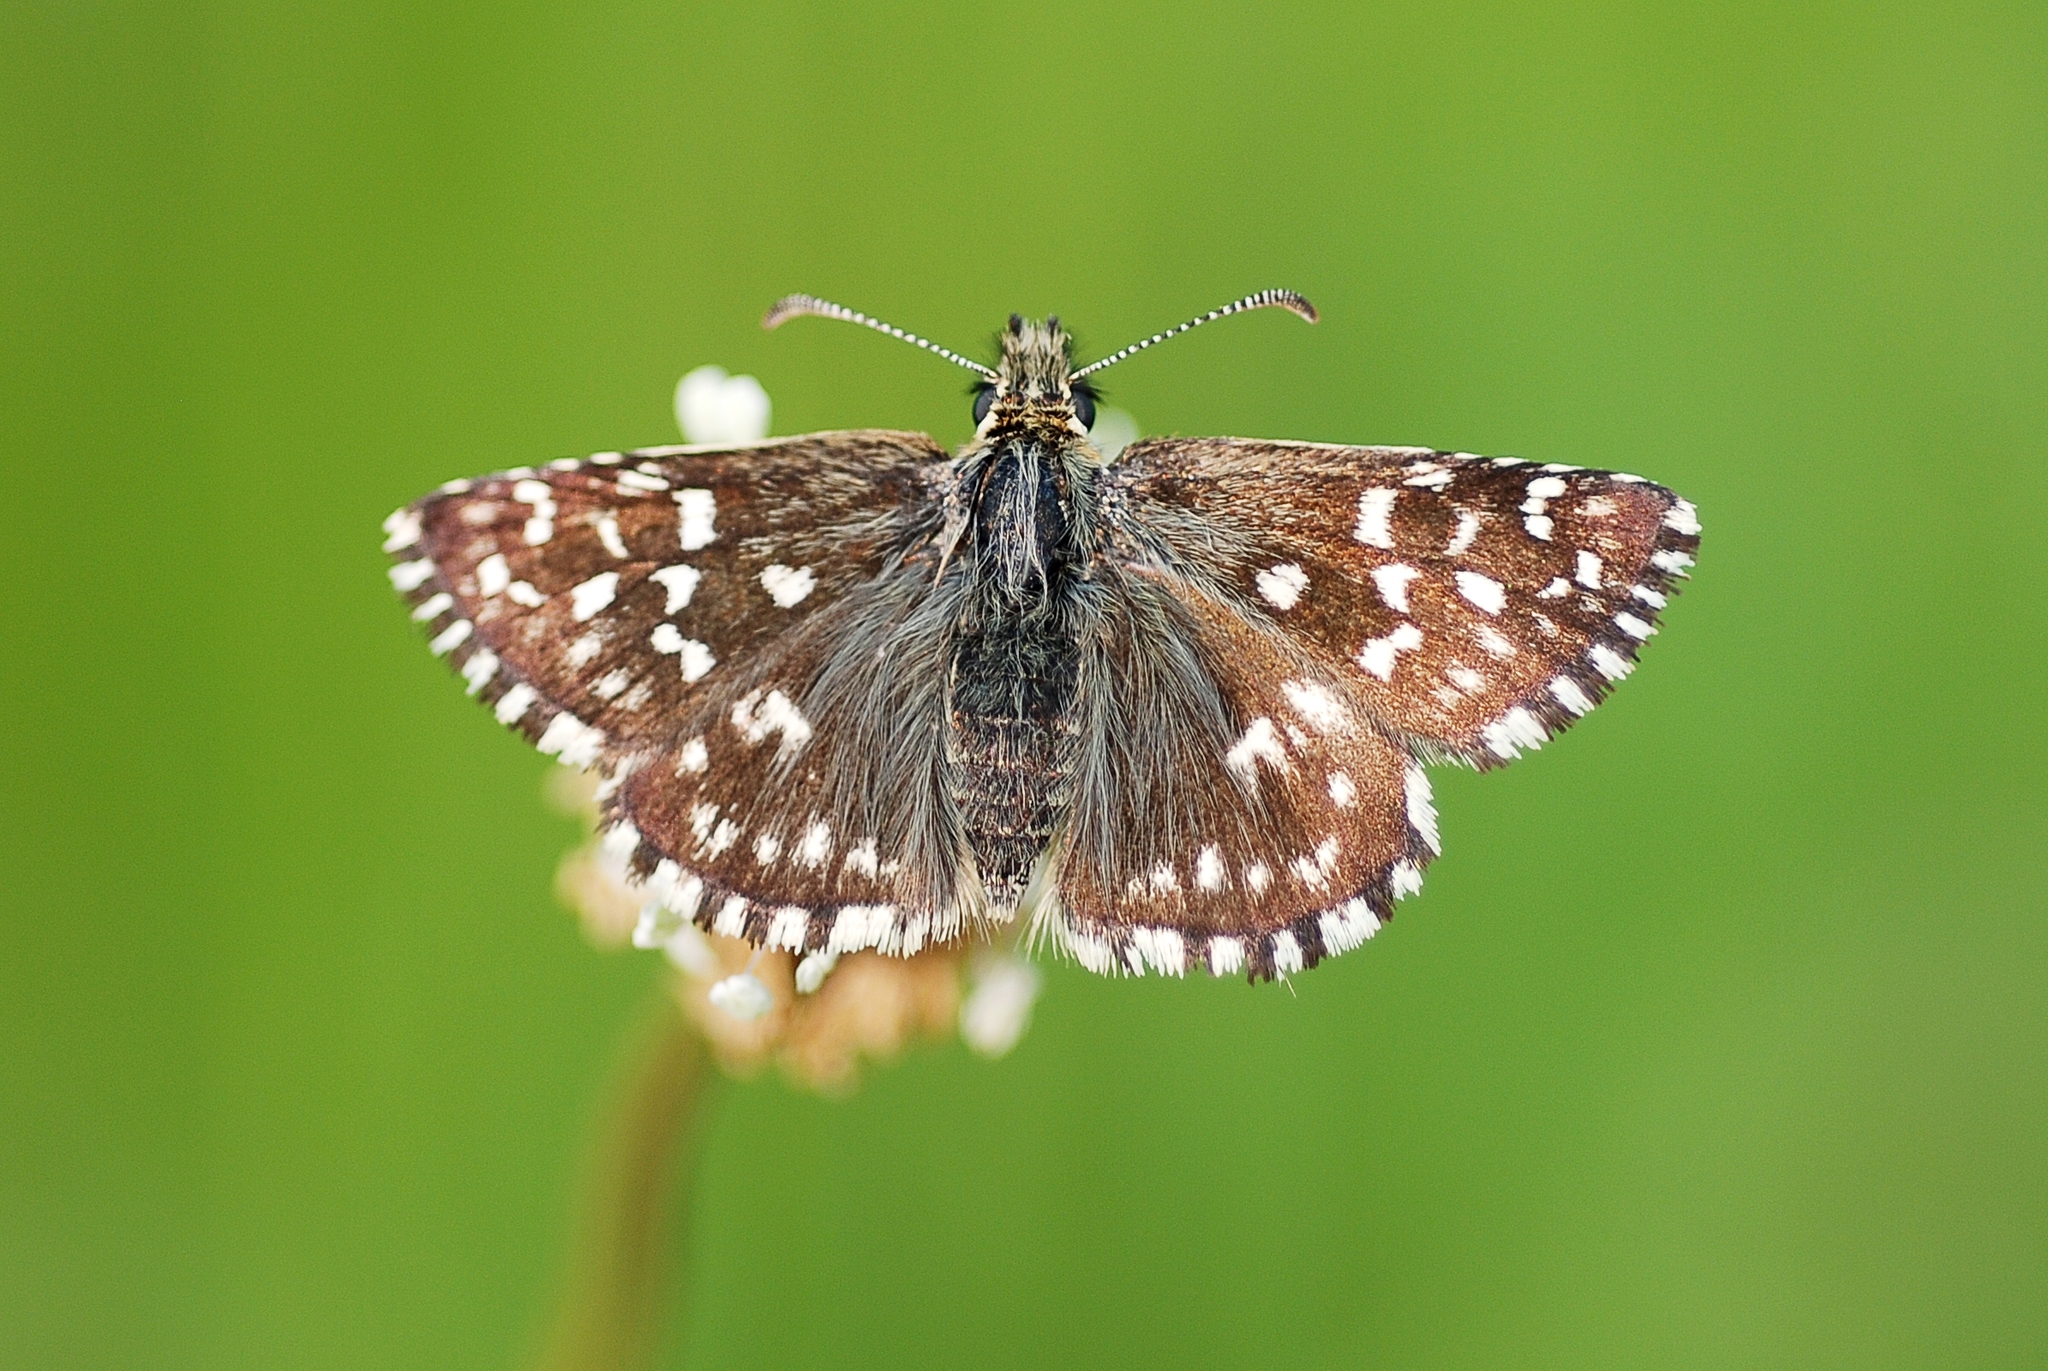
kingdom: Animalia
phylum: Arthropoda
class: Insecta
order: Lepidoptera
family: Hesperiidae
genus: Pyrgus
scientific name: Pyrgus malvae
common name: Grizzled skipper
